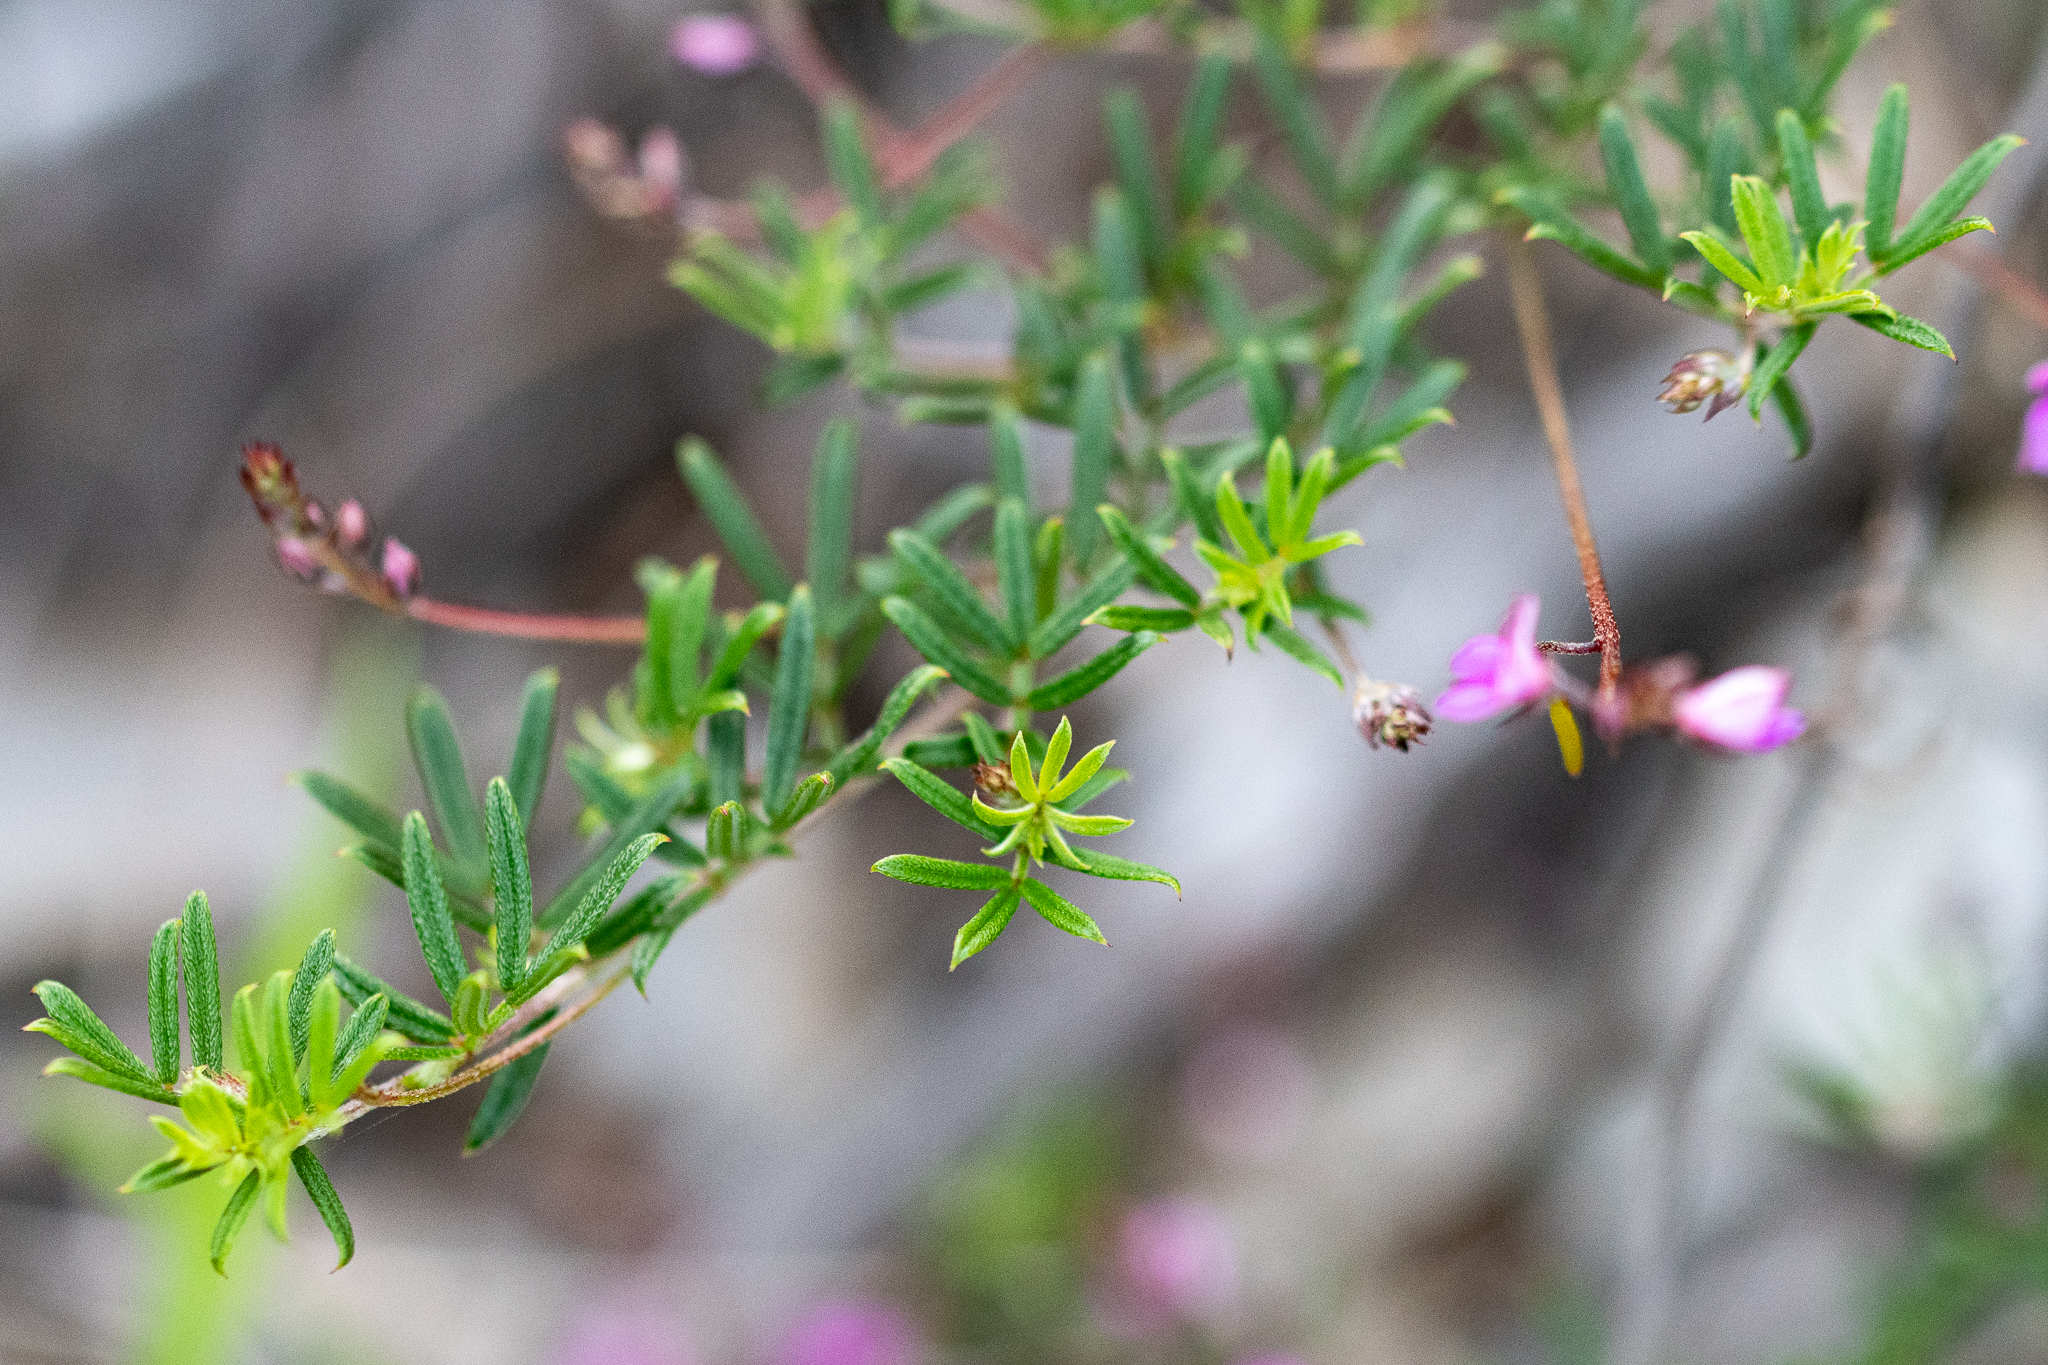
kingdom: Plantae
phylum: Tracheophyta
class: Magnoliopsida
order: Fabales
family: Fabaceae
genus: Indigofera
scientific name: Indigofera angustifolia
